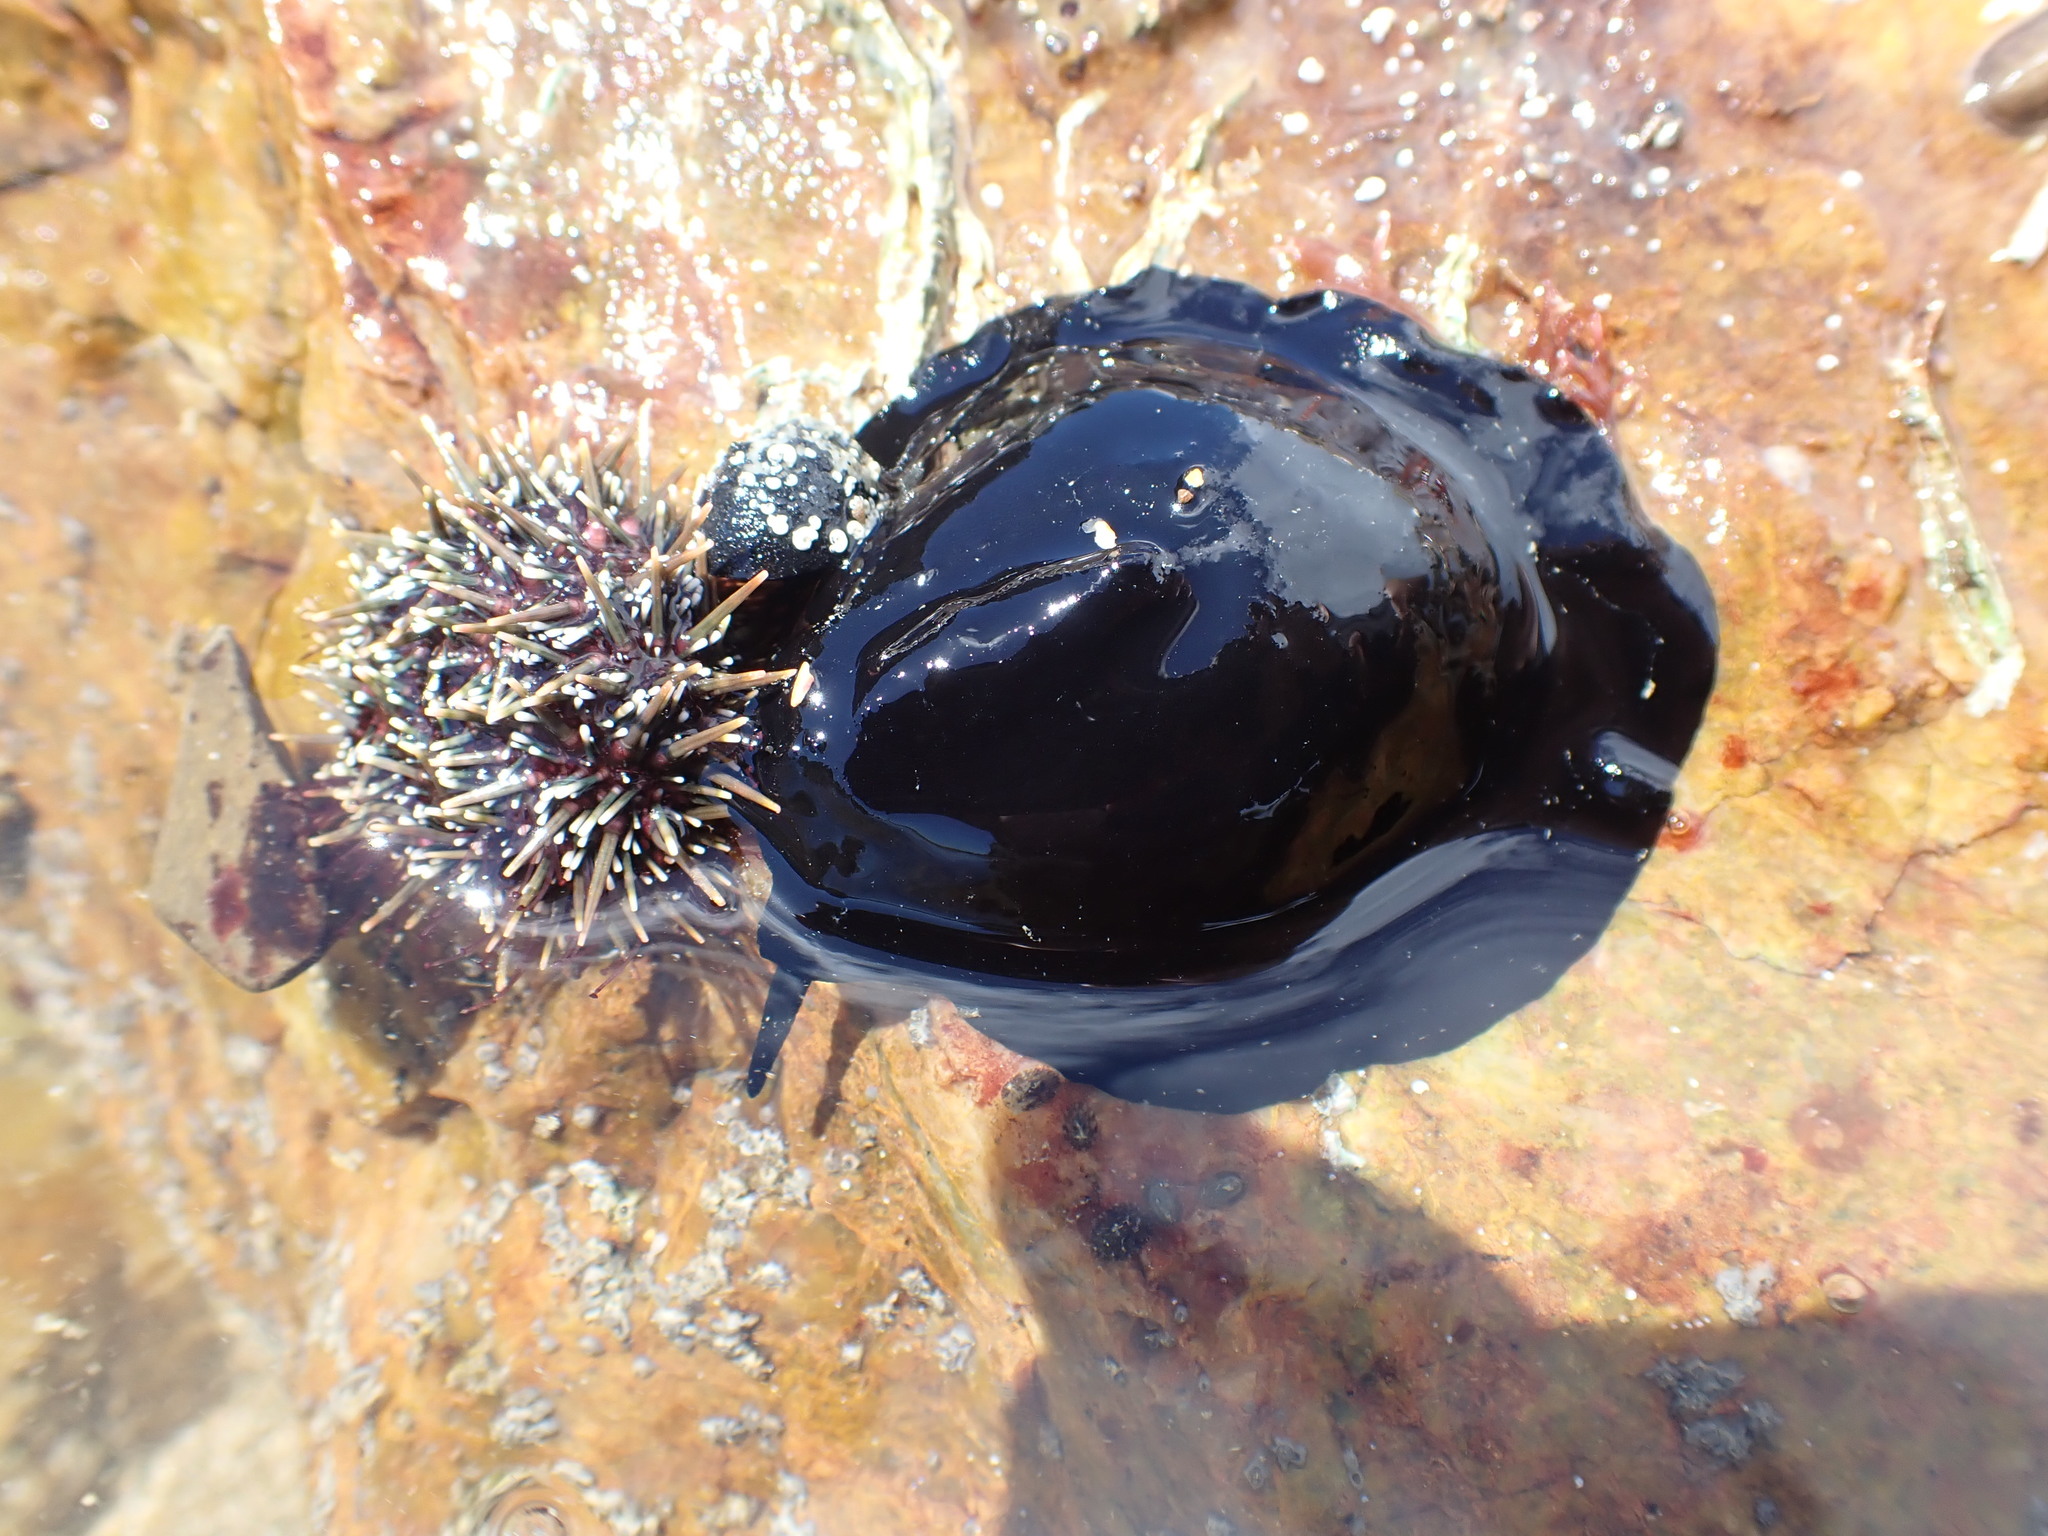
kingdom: Animalia
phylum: Mollusca
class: Gastropoda
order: Lepetellida
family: Fissurellidae
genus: Scutus
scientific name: Scutus breviculus
